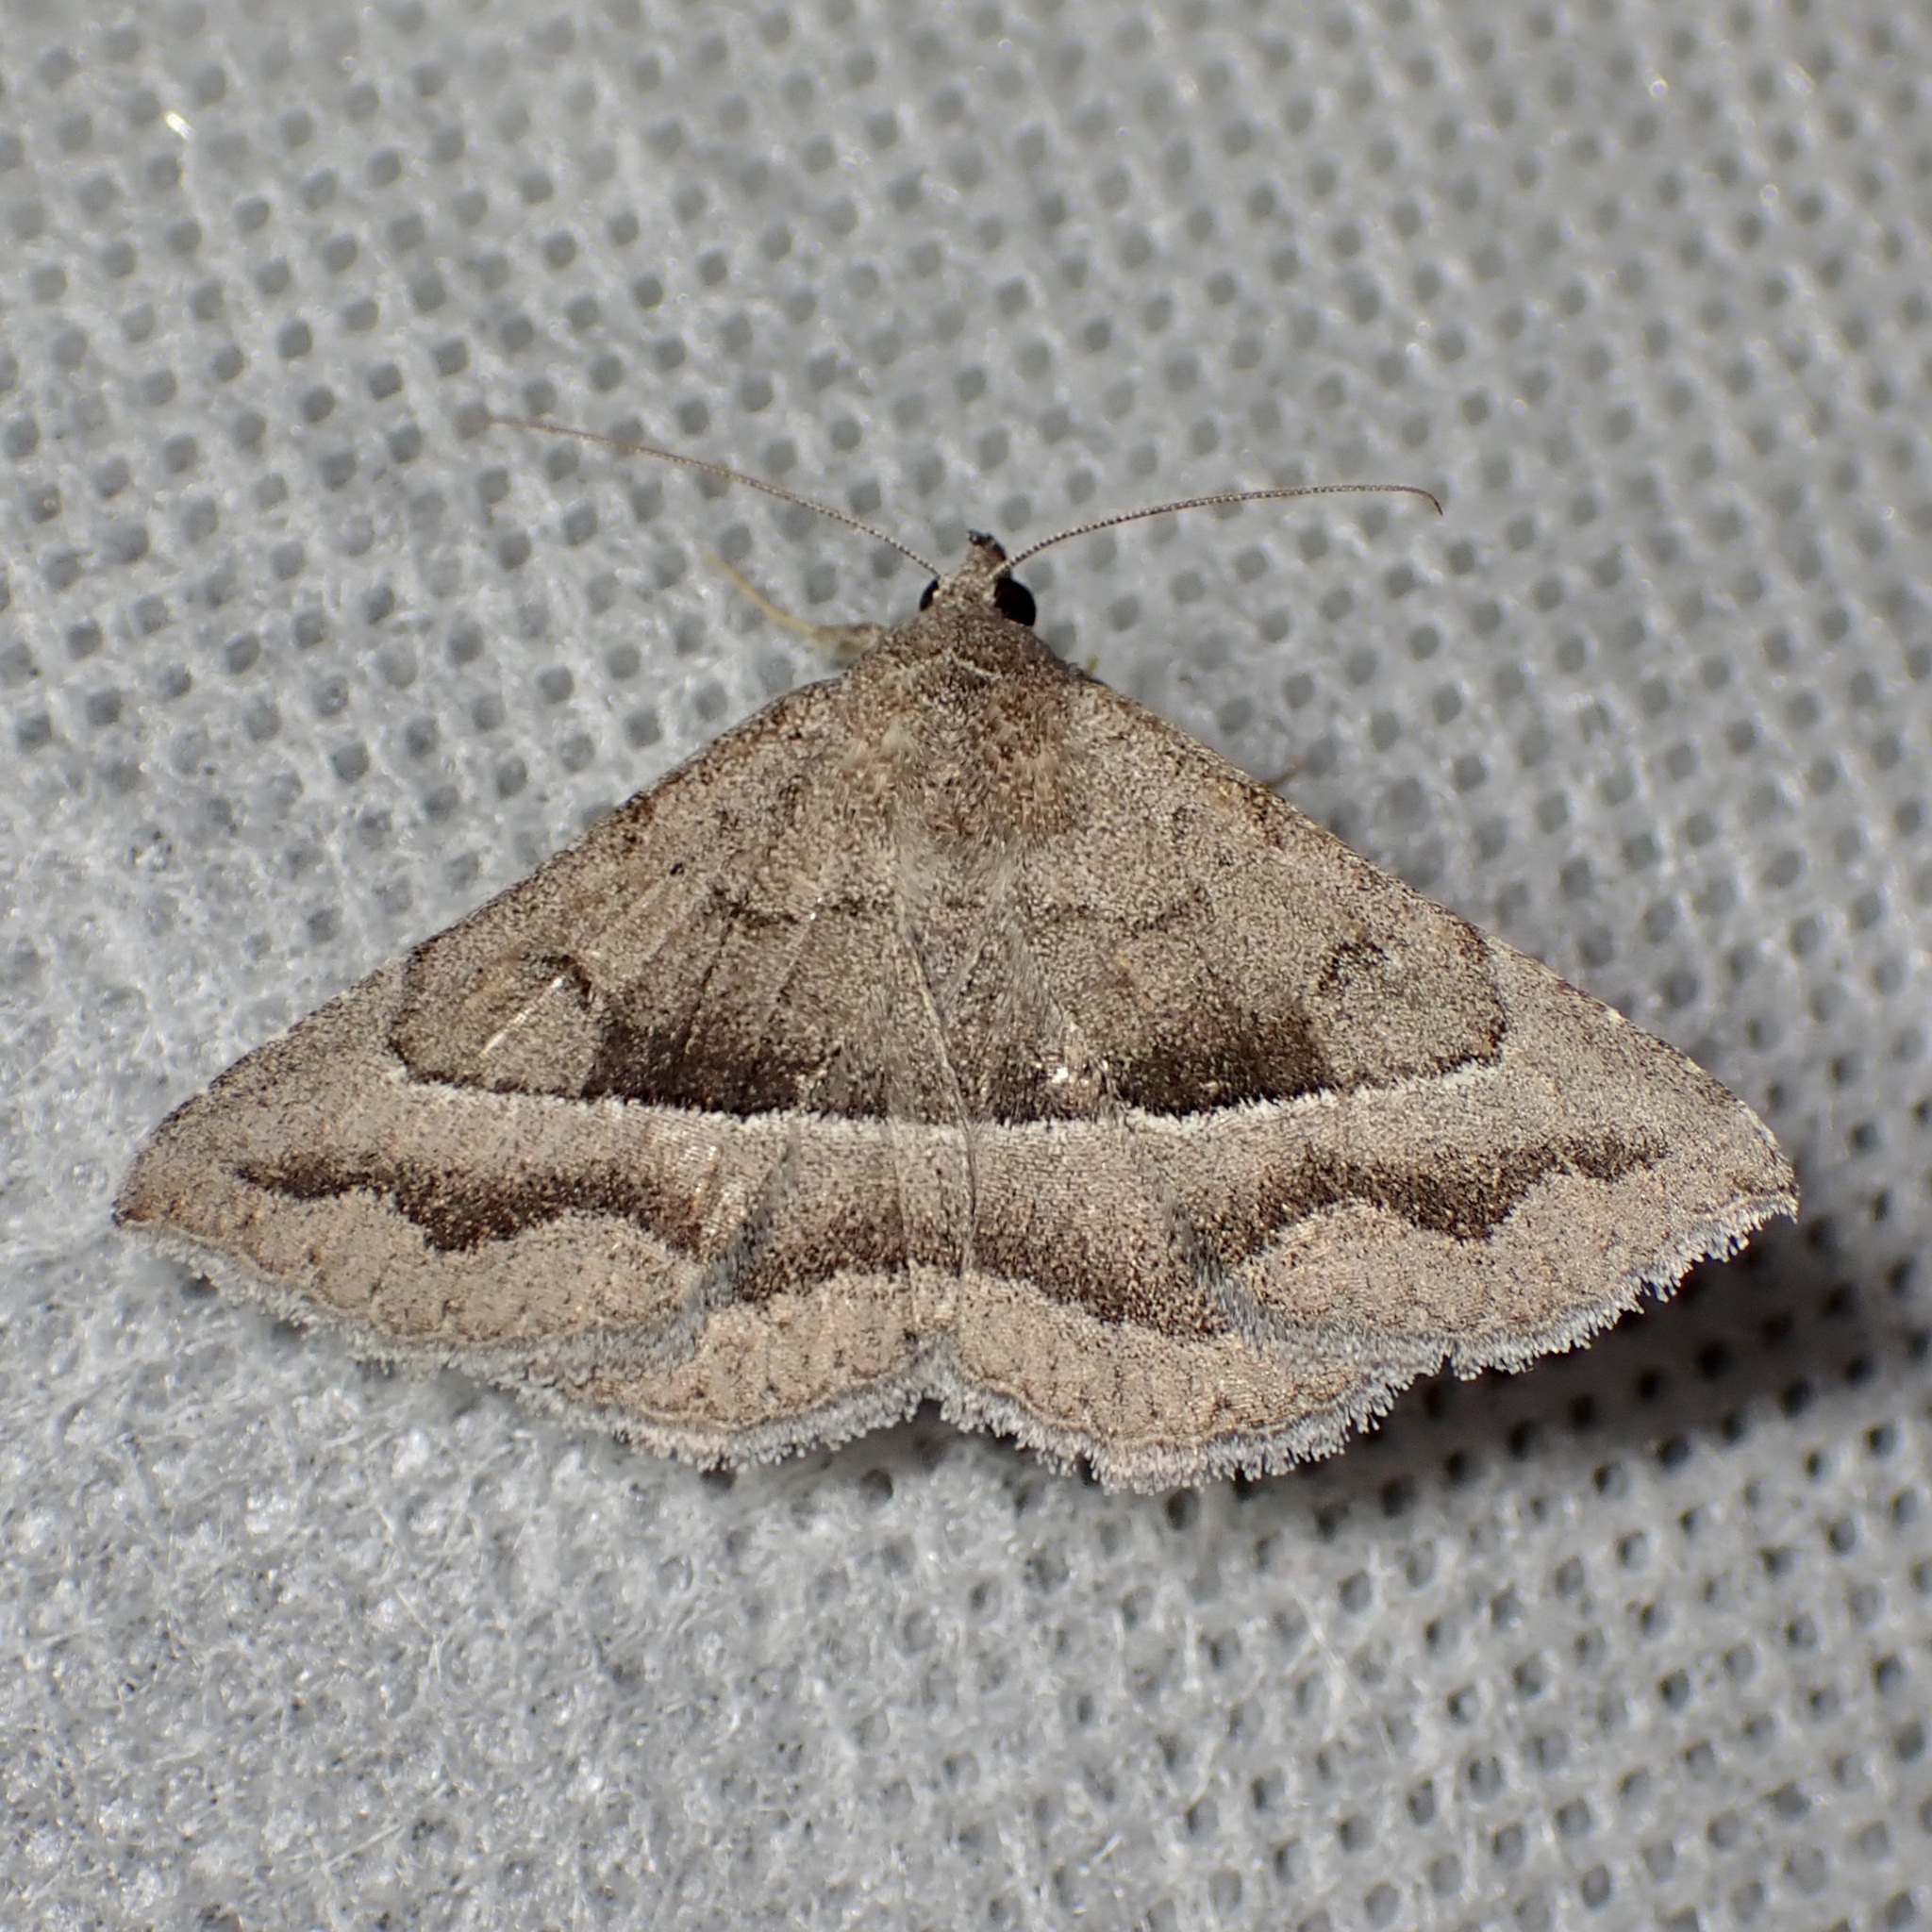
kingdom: Animalia
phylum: Arthropoda
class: Insecta
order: Lepidoptera
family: Erebidae
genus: Lesmone
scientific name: Lesmone griseipennis
